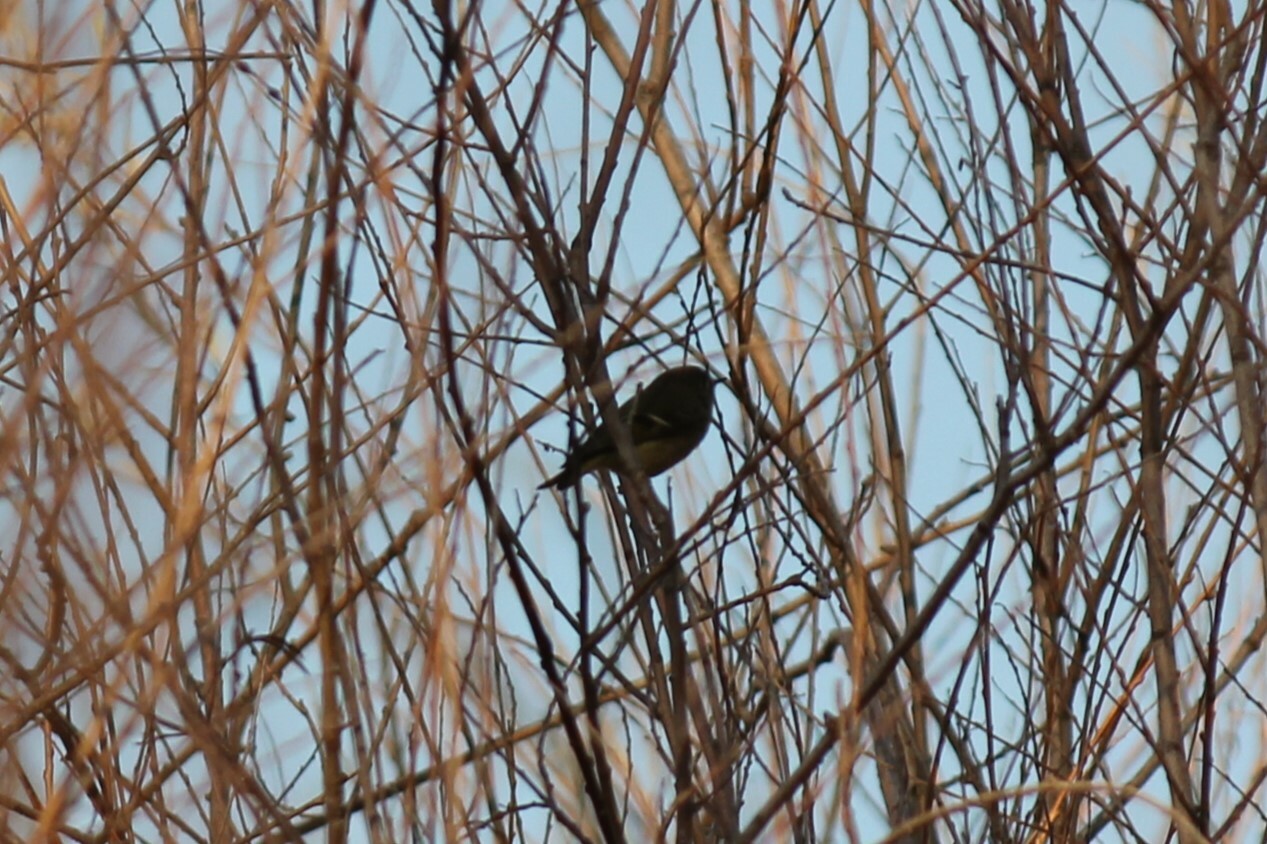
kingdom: Animalia
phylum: Chordata
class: Aves
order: Passeriformes
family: Regulidae
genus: Regulus
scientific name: Regulus calendula
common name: Ruby-crowned kinglet
